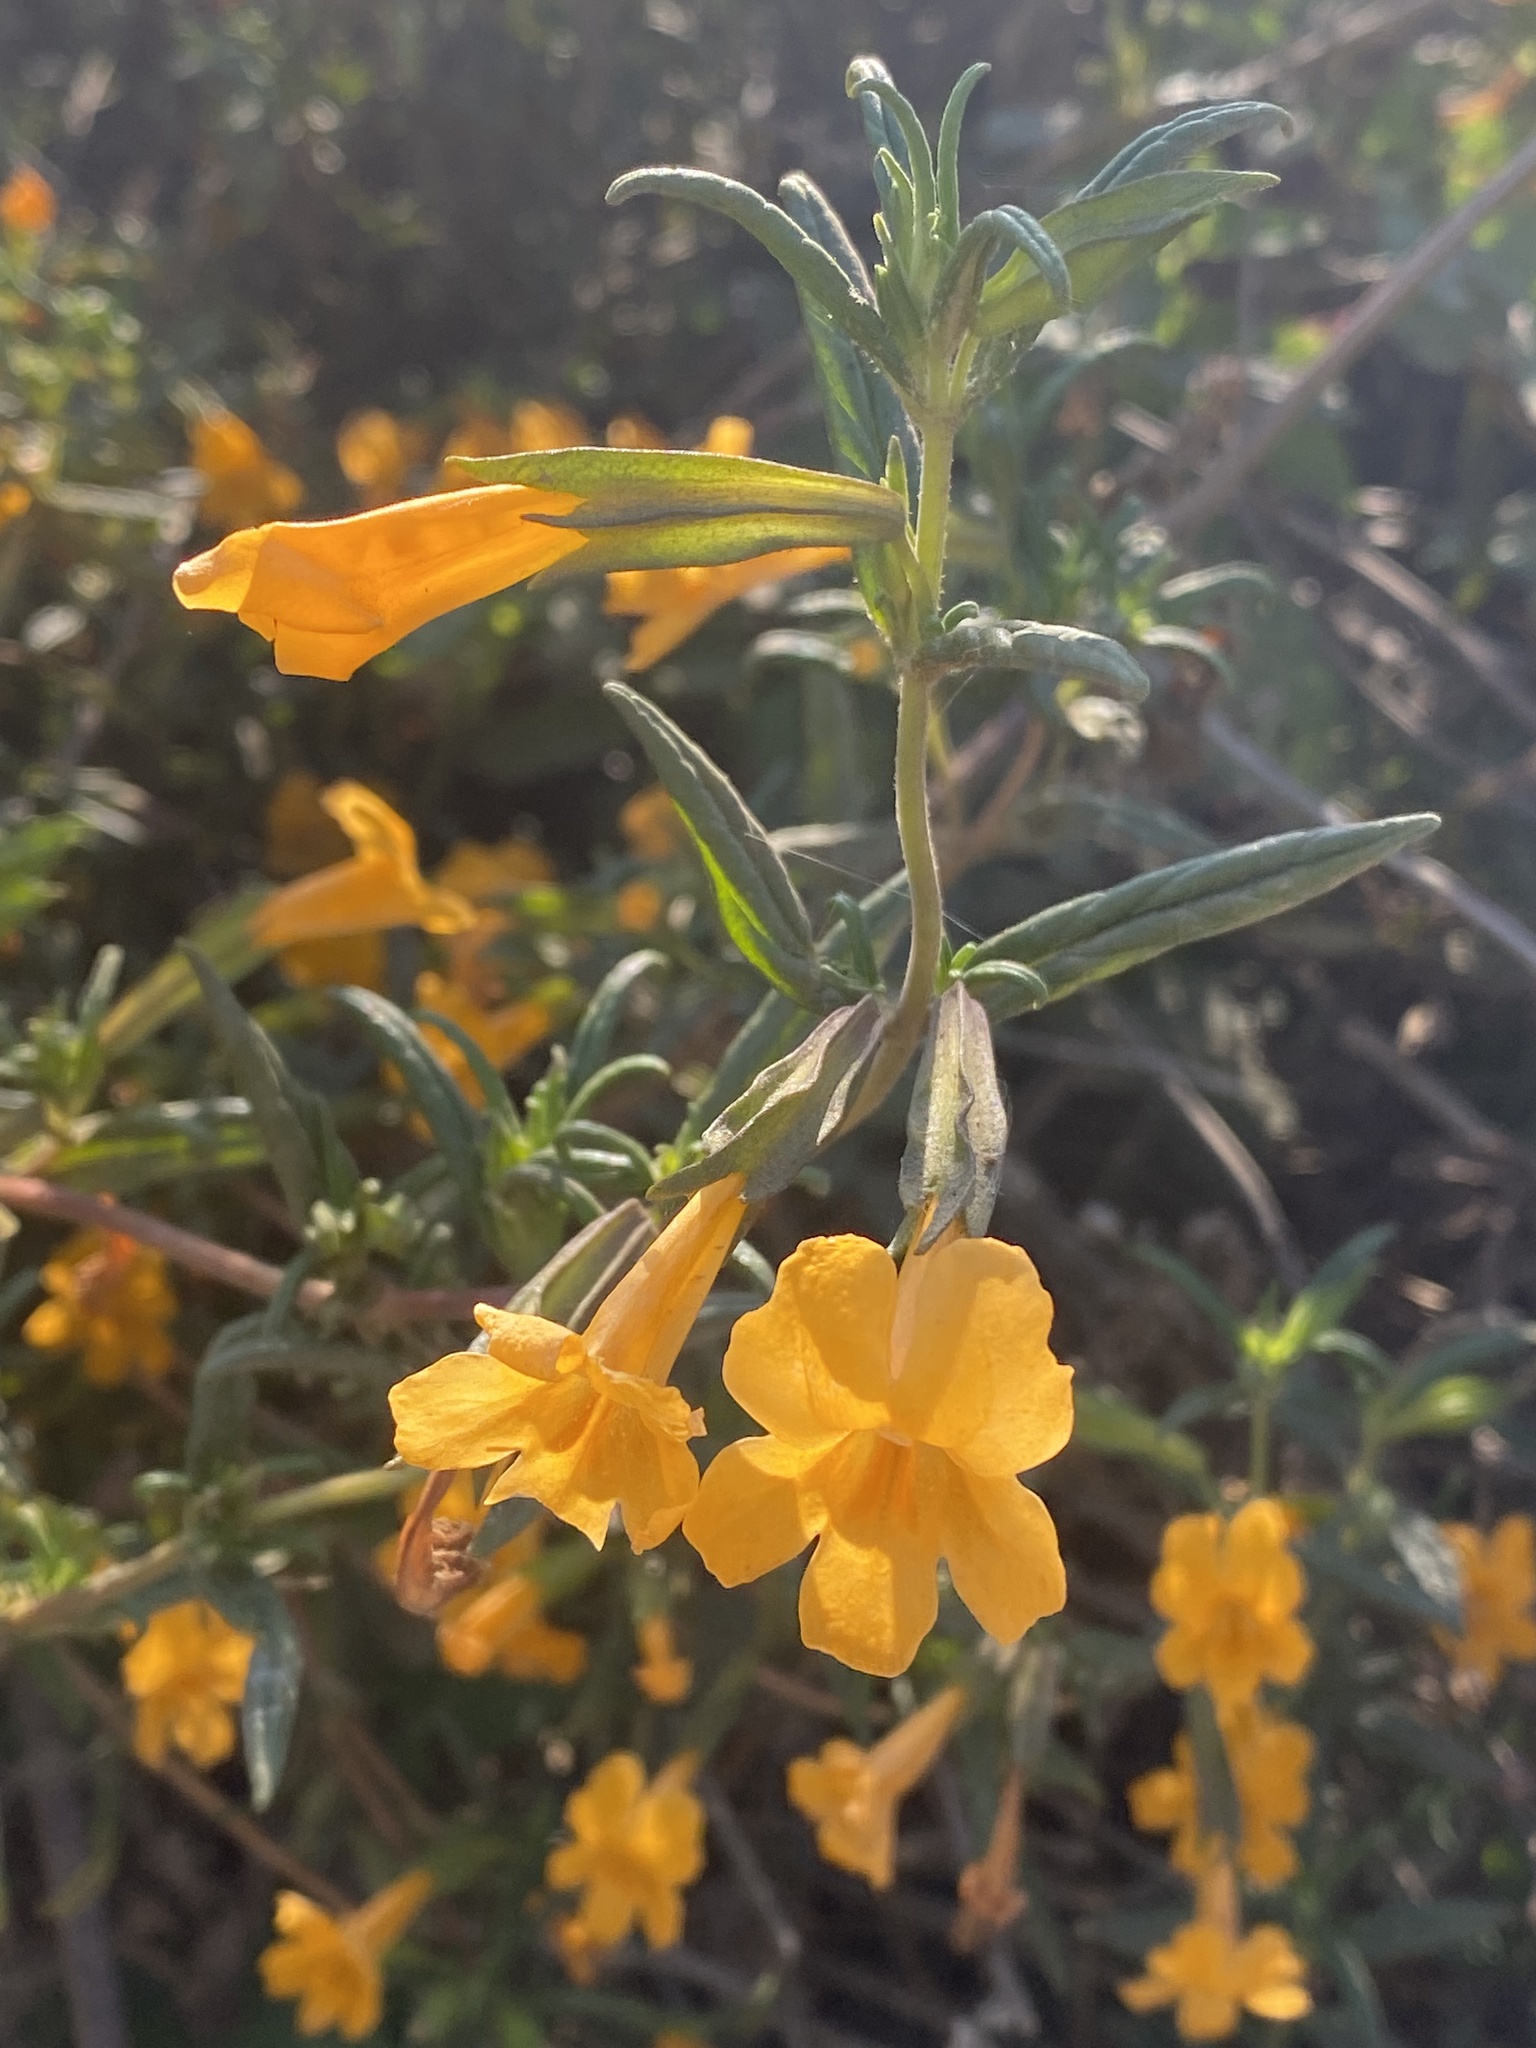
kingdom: Plantae
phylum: Tracheophyta
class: Magnoliopsida
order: Lamiales
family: Phrymaceae
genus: Diplacus
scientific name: Diplacus aurantiacus
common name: Bush monkey-flower
